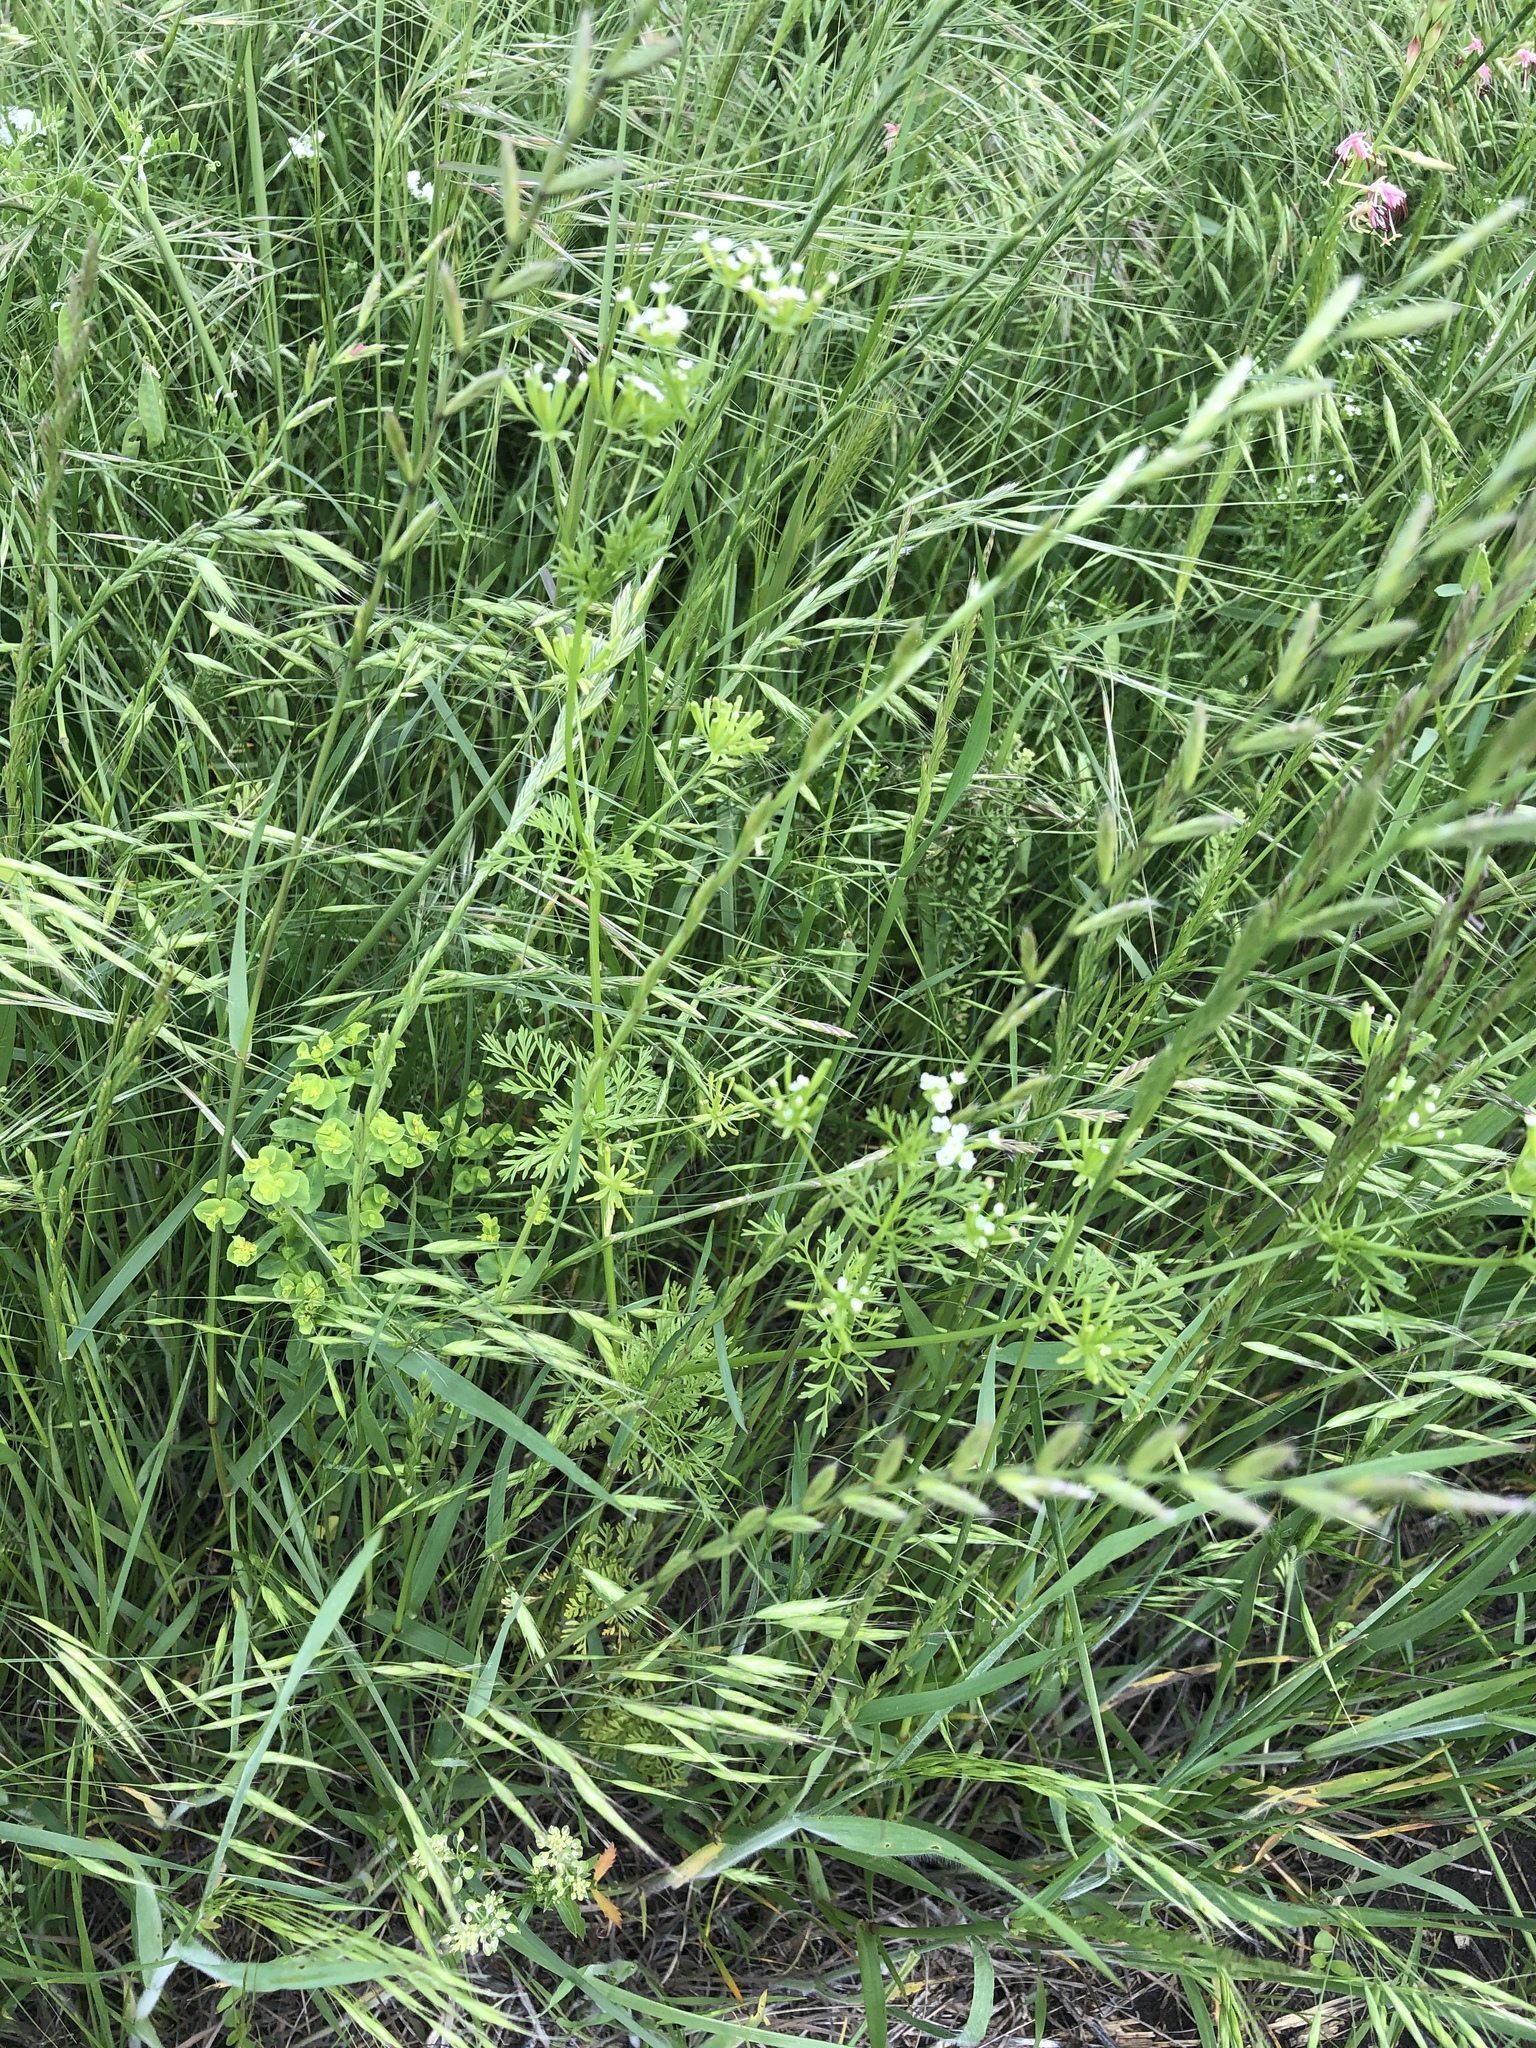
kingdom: Plantae
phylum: Tracheophyta
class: Magnoliopsida
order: Apiales
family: Apiaceae
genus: Chaerophyllum
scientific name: Chaerophyllum tainturieri
